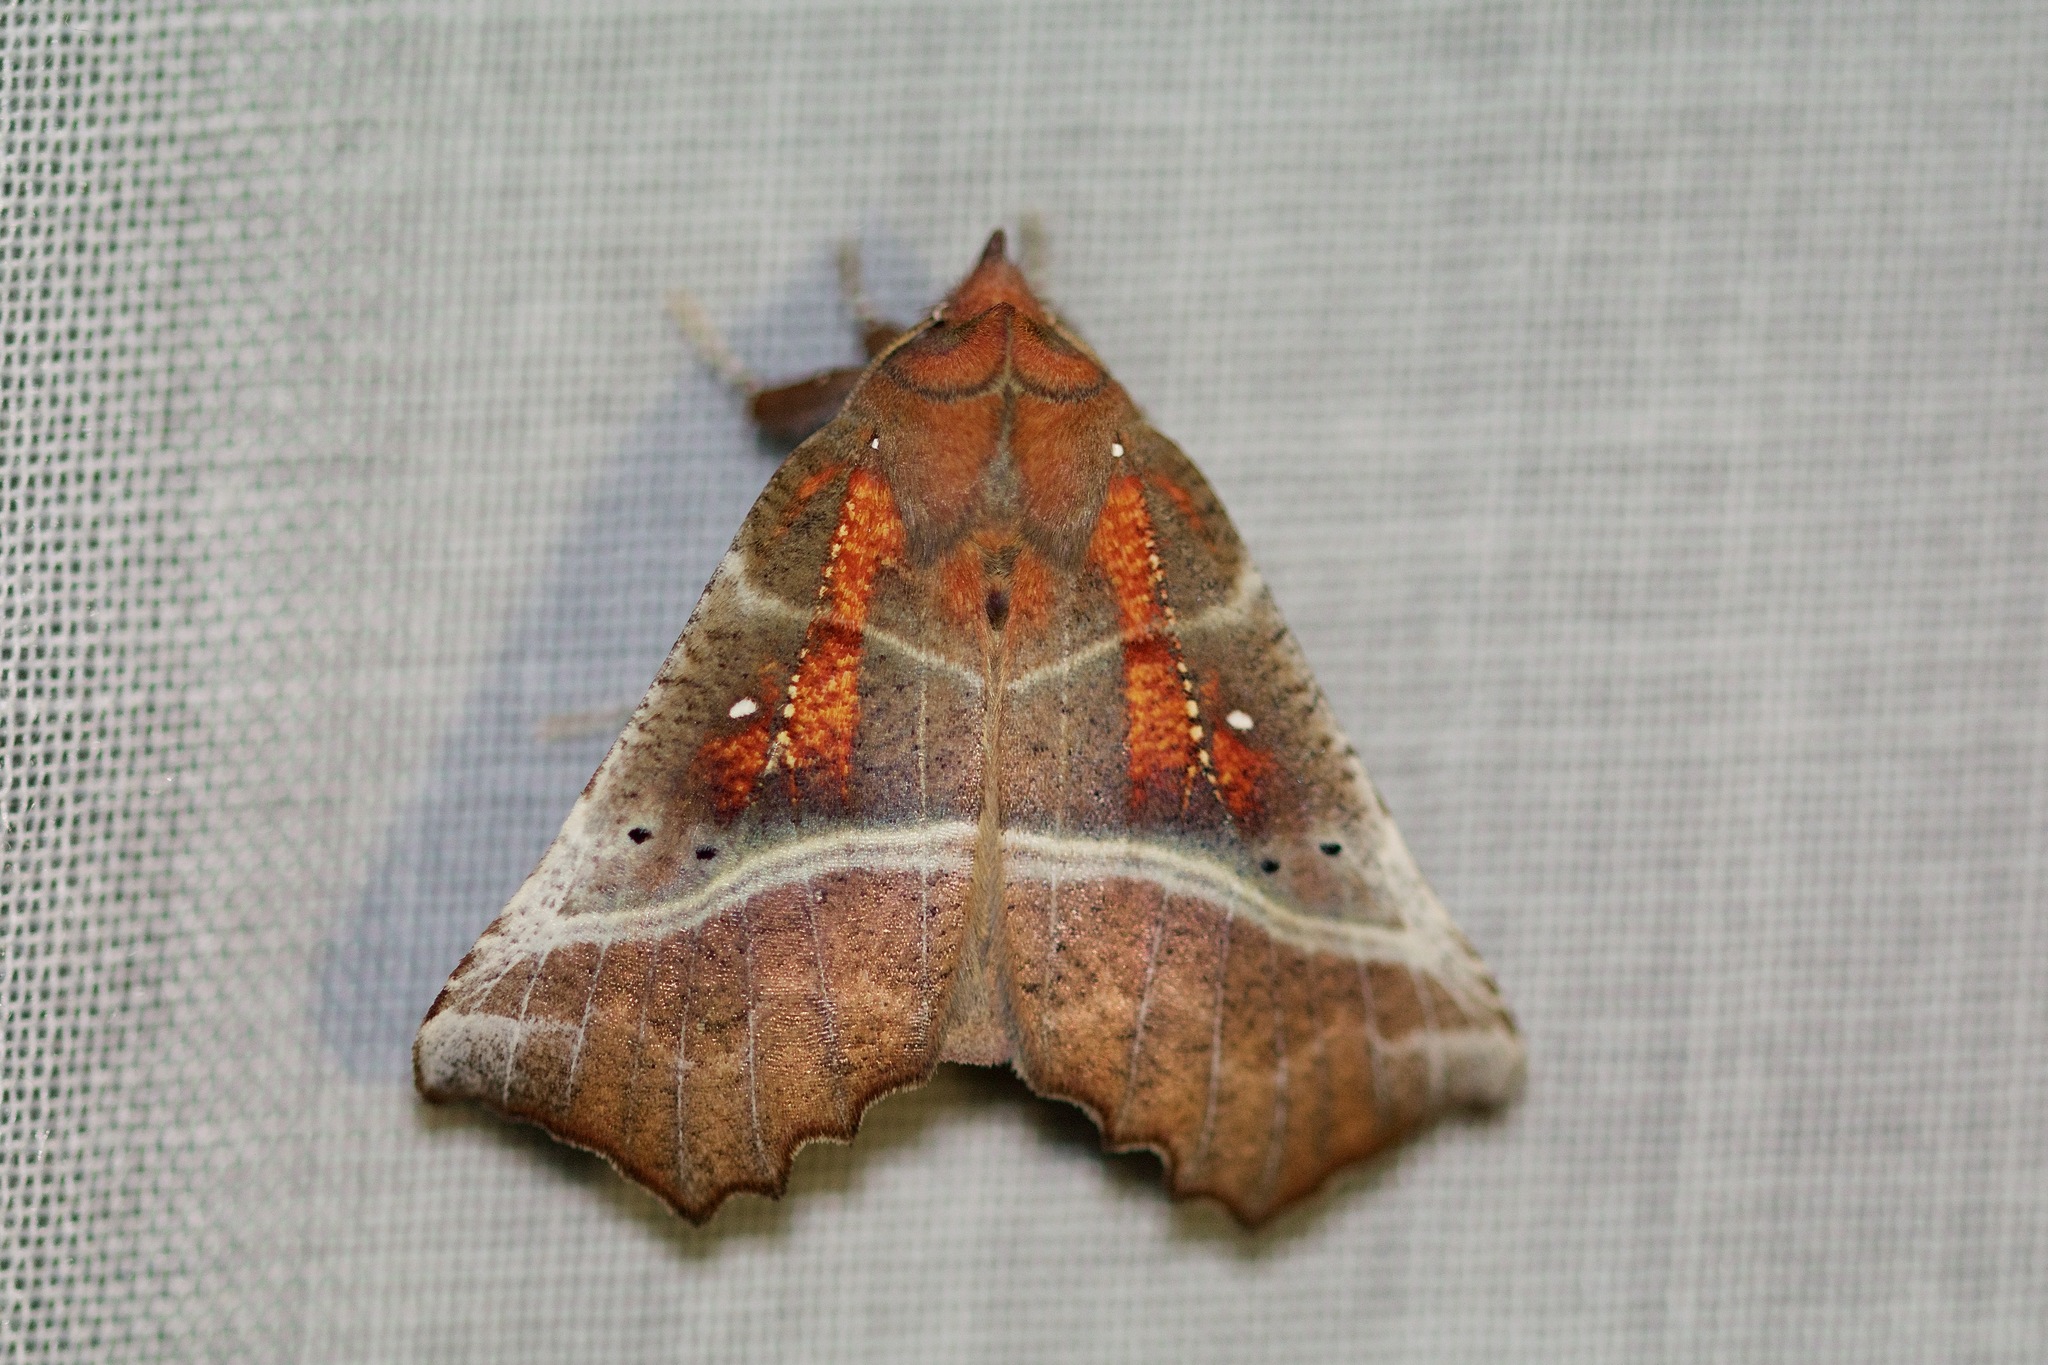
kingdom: Animalia
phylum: Arthropoda
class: Insecta
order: Lepidoptera
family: Erebidae
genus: Scoliopteryx
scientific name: Scoliopteryx libatrix
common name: Herald
